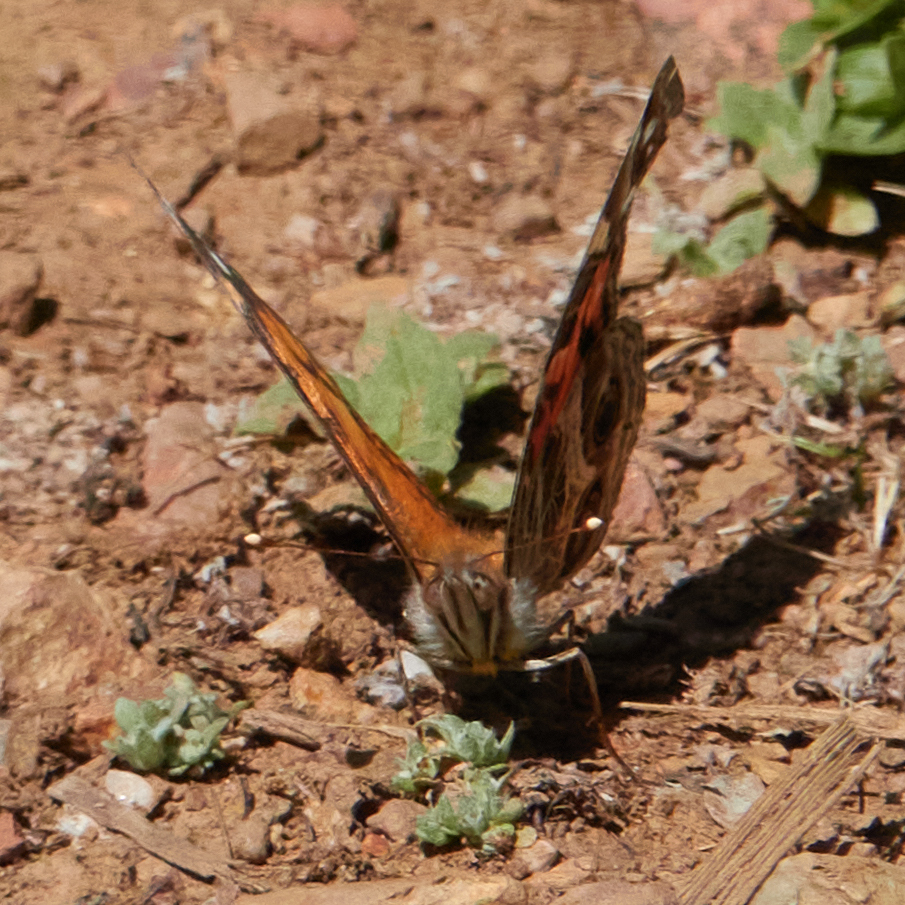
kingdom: Animalia
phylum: Arthropoda
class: Insecta
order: Lepidoptera
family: Nymphalidae
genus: Vanessa
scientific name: Vanessa virginiensis
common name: American lady
